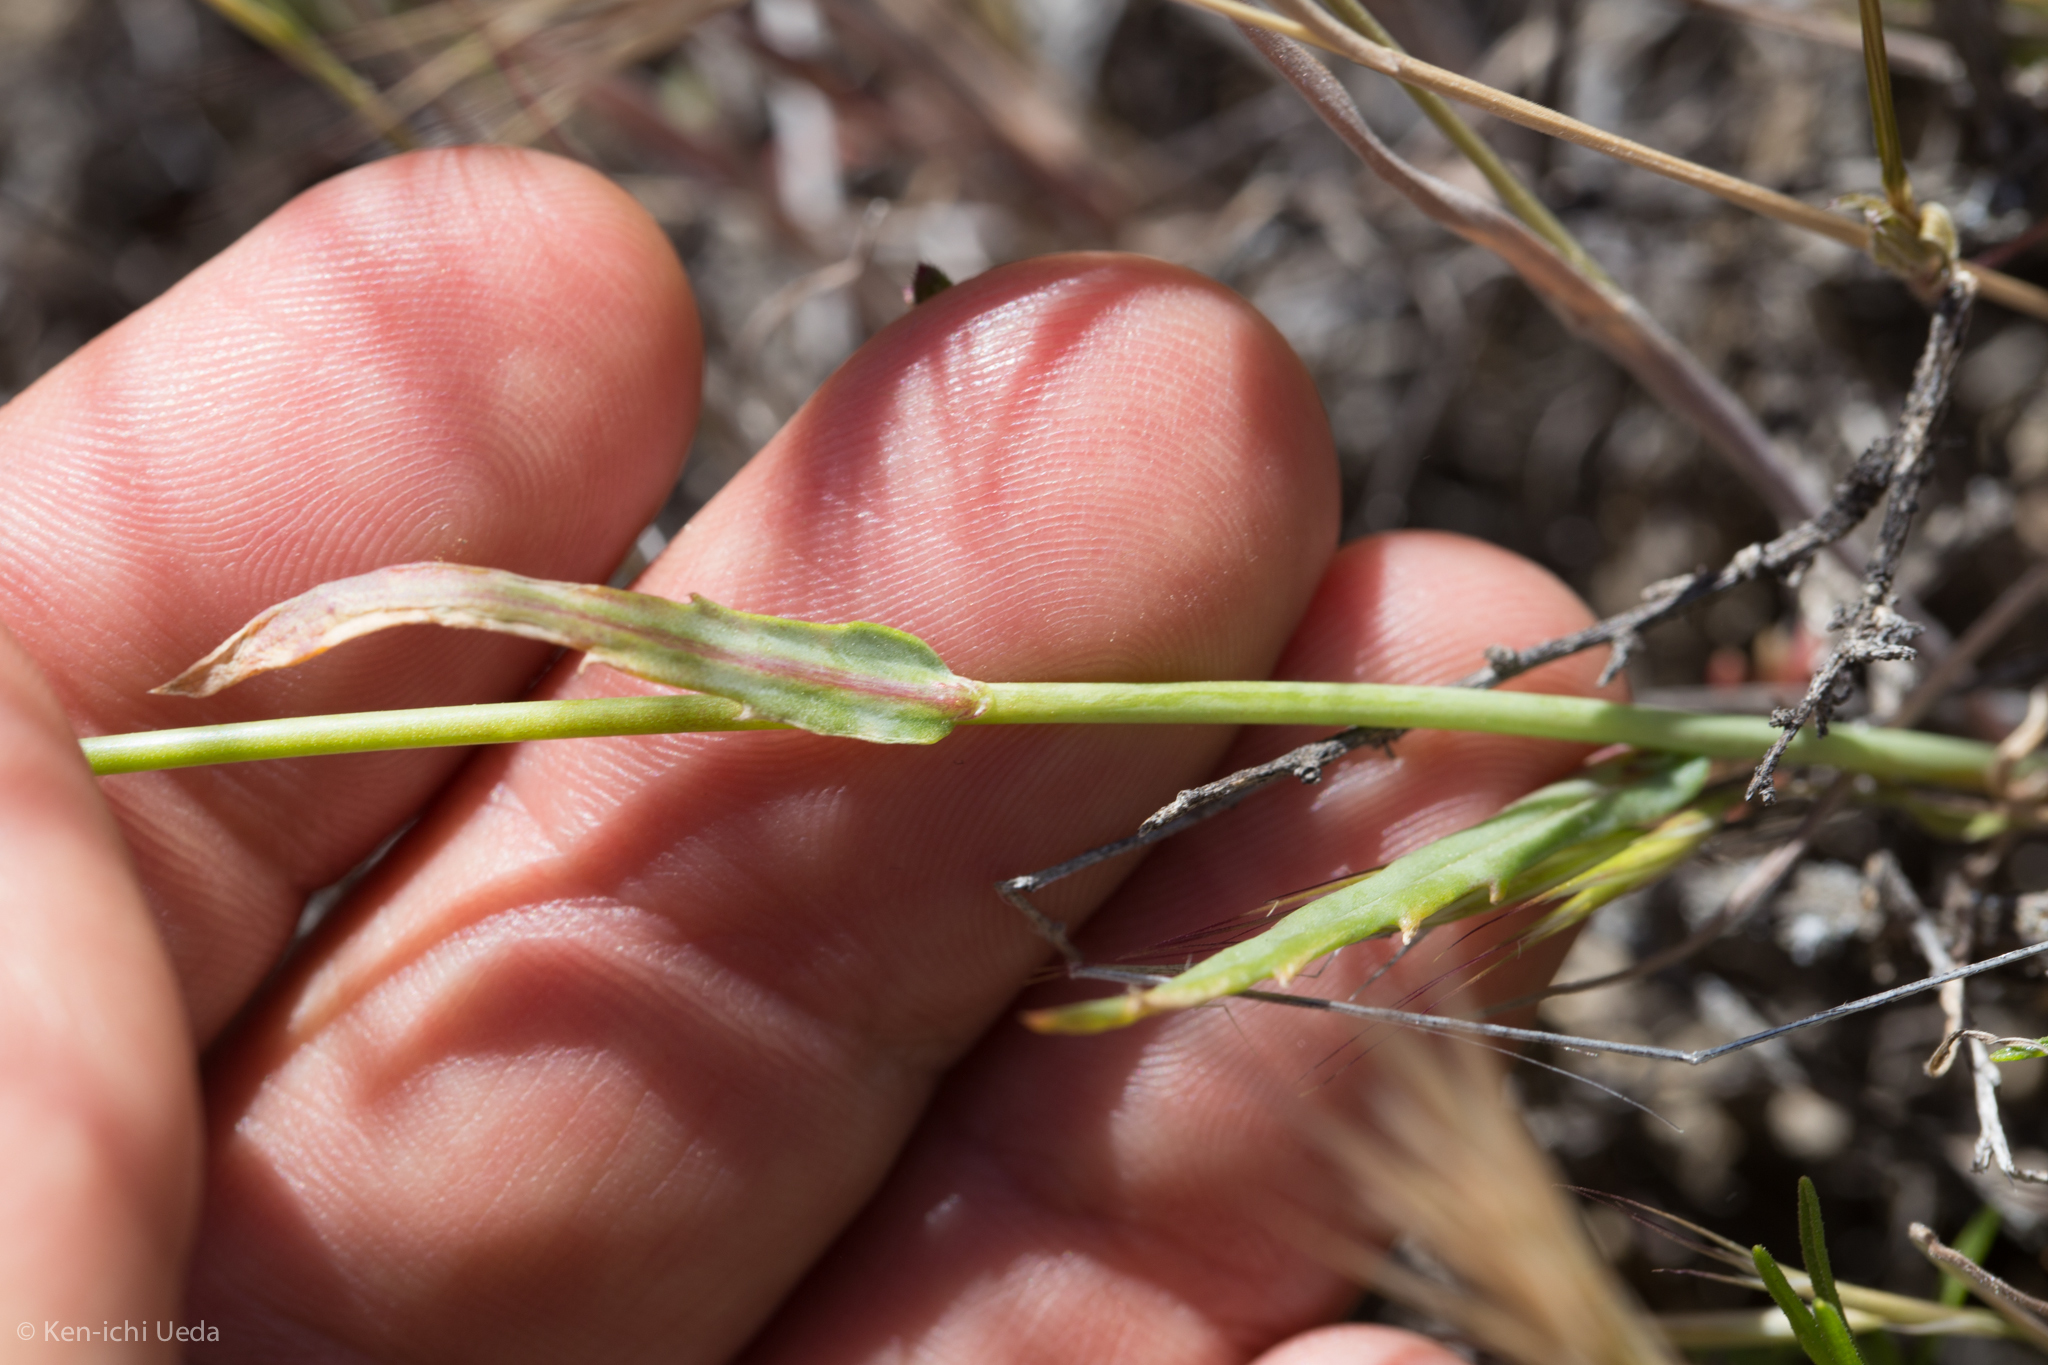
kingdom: Plantae
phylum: Tracheophyta
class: Magnoliopsida
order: Ericales
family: Polemoniaceae
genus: Gilia
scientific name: Gilia latiflora
